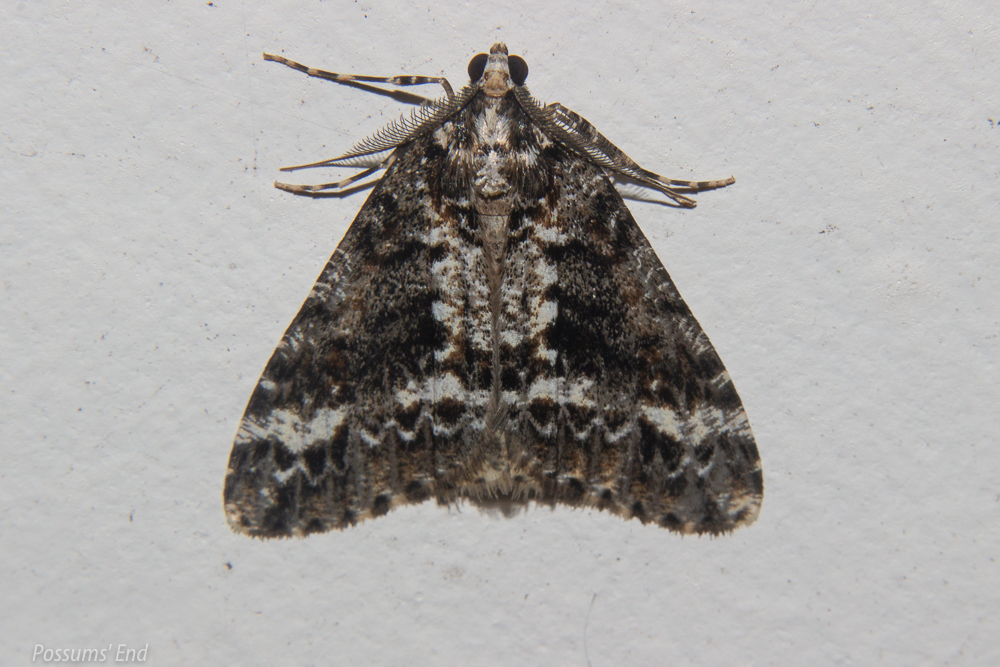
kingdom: Animalia
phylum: Arthropoda
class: Insecta
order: Lepidoptera
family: Geometridae
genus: Pseudocoremia
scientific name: Pseudocoremia leucelaea
